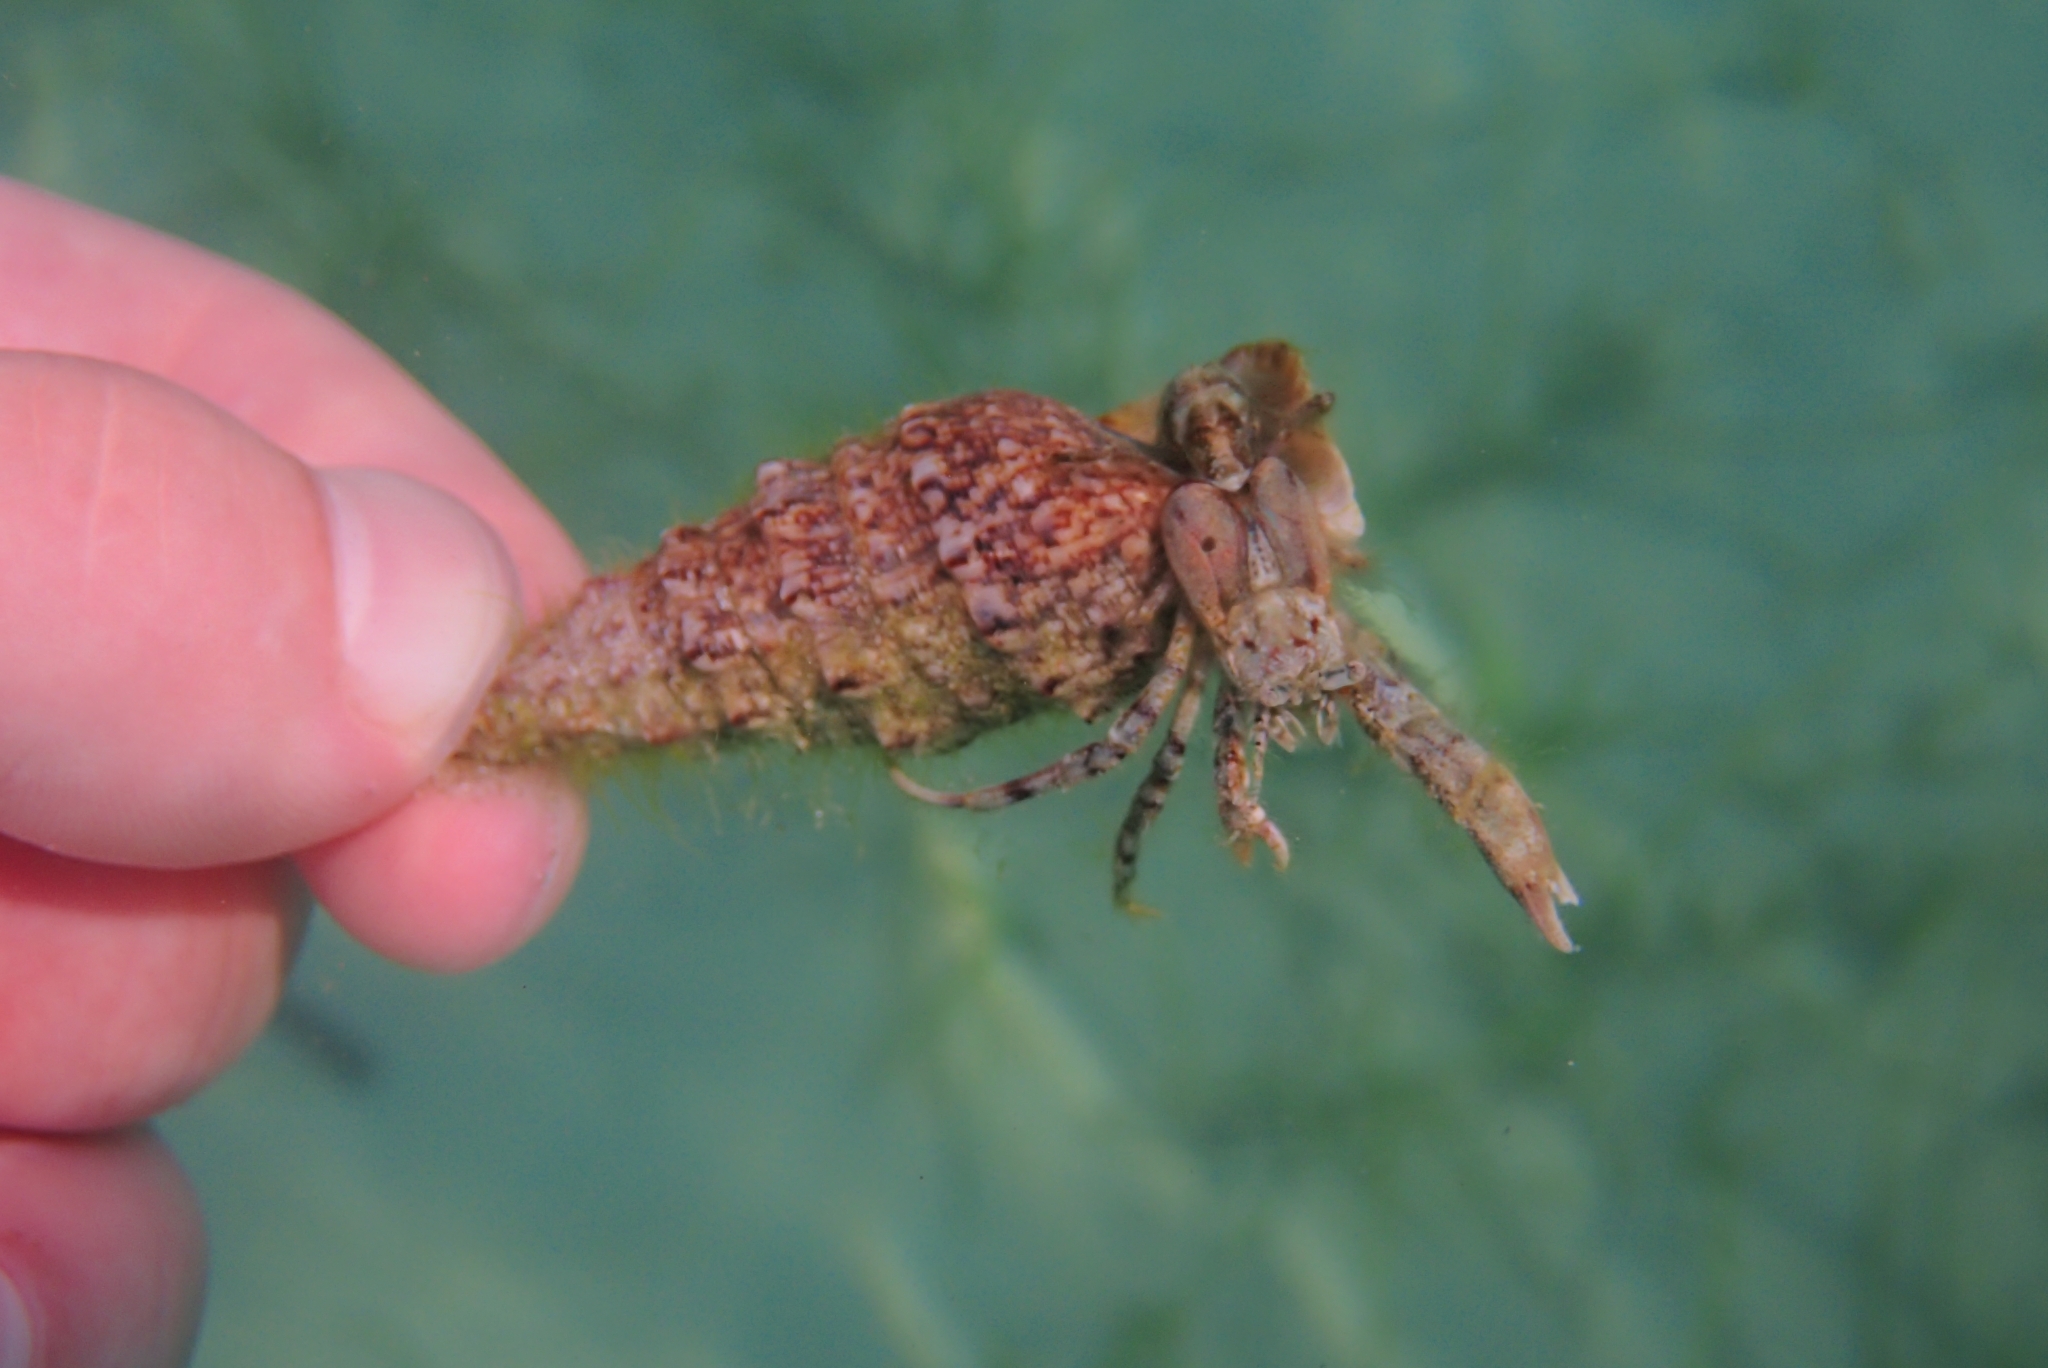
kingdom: Animalia
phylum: Arthropoda
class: Malacostraca
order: Decapoda
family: Diogenidae
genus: Diogenes
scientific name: Diogenes pugilator
